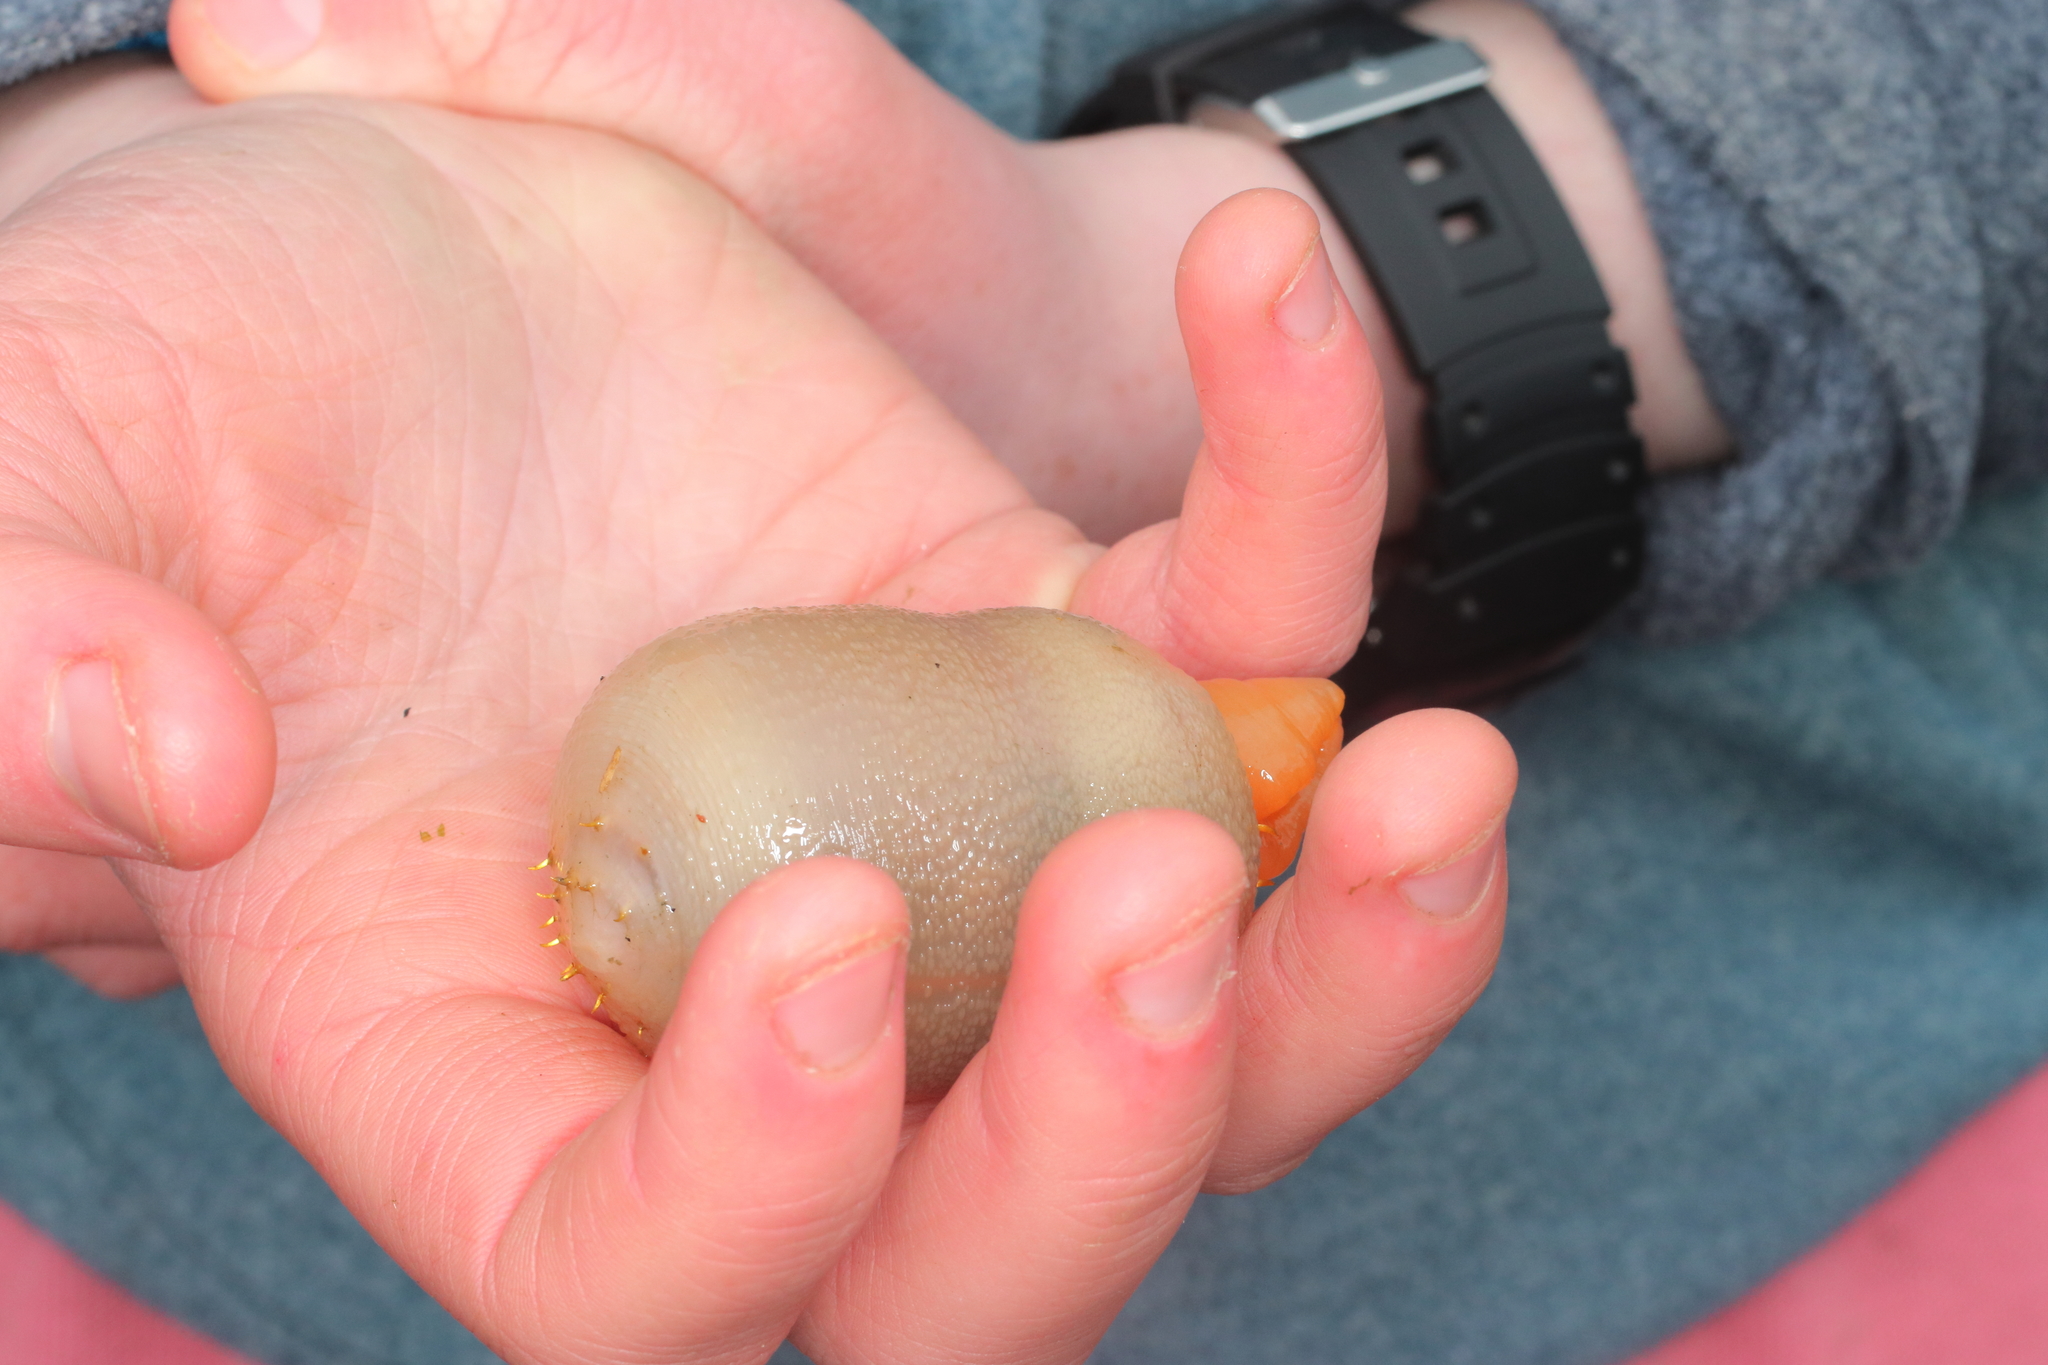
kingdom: Animalia
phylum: Annelida
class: Polychaeta
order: Echiuroidea
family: Echiuridae
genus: Echiurus
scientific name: Echiurus sitchaensis
